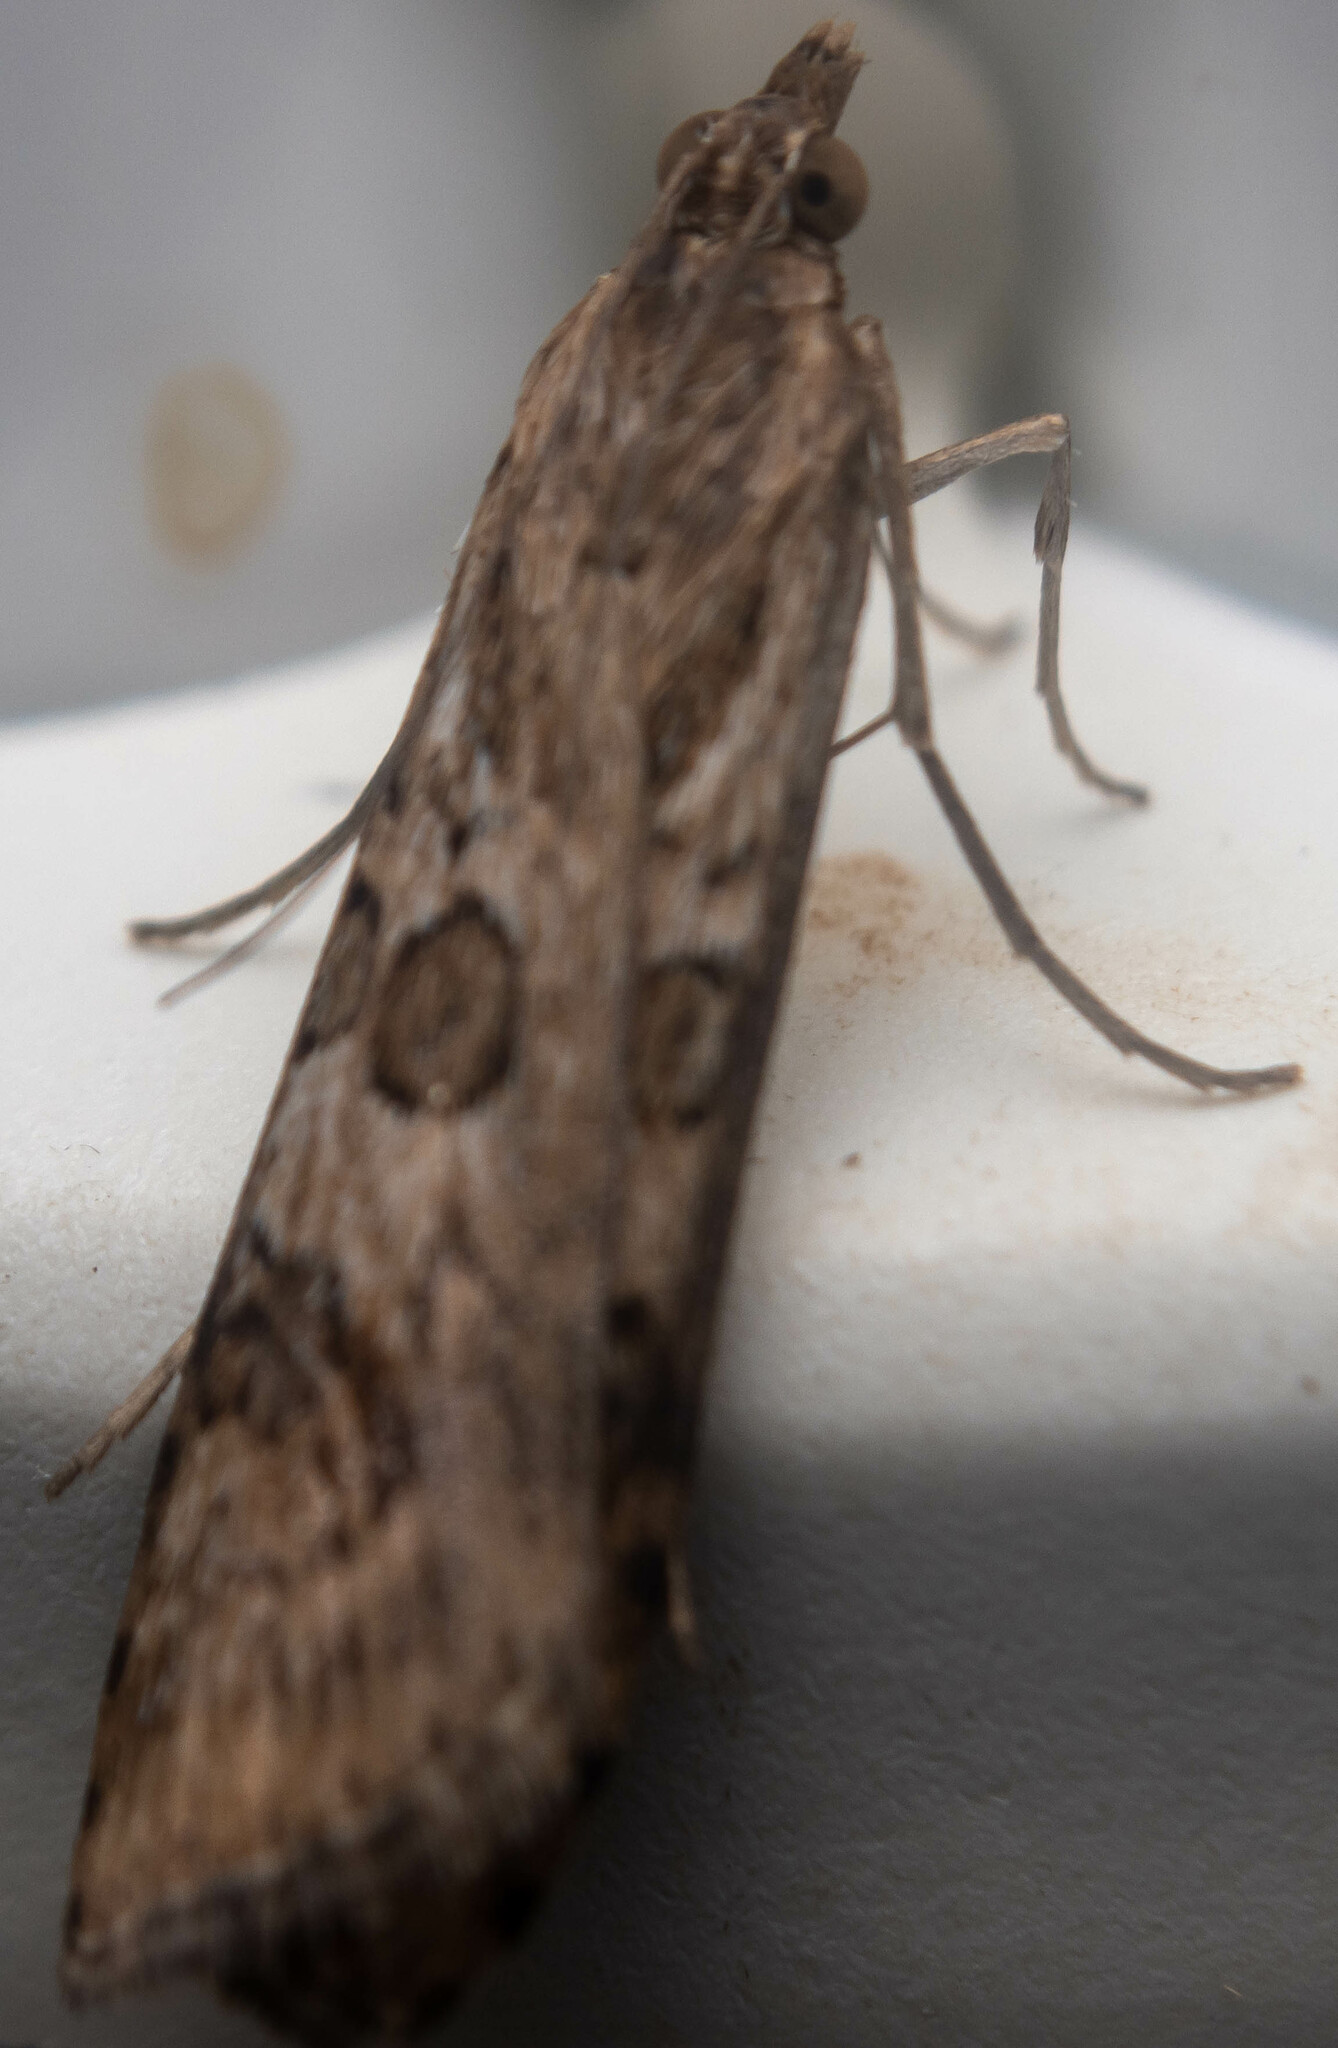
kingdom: Animalia
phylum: Arthropoda
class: Insecta
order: Lepidoptera
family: Crambidae
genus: Nomophila
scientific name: Nomophila noctuella
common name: Rush veneer
